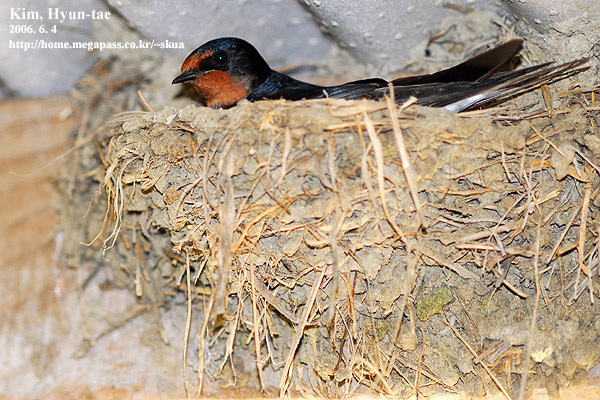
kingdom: Animalia
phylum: Chordata
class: Aves
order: Passeriformes
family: Hirundinidae
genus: Hirundo
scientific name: Hirundo rustica
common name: Barn swallow
